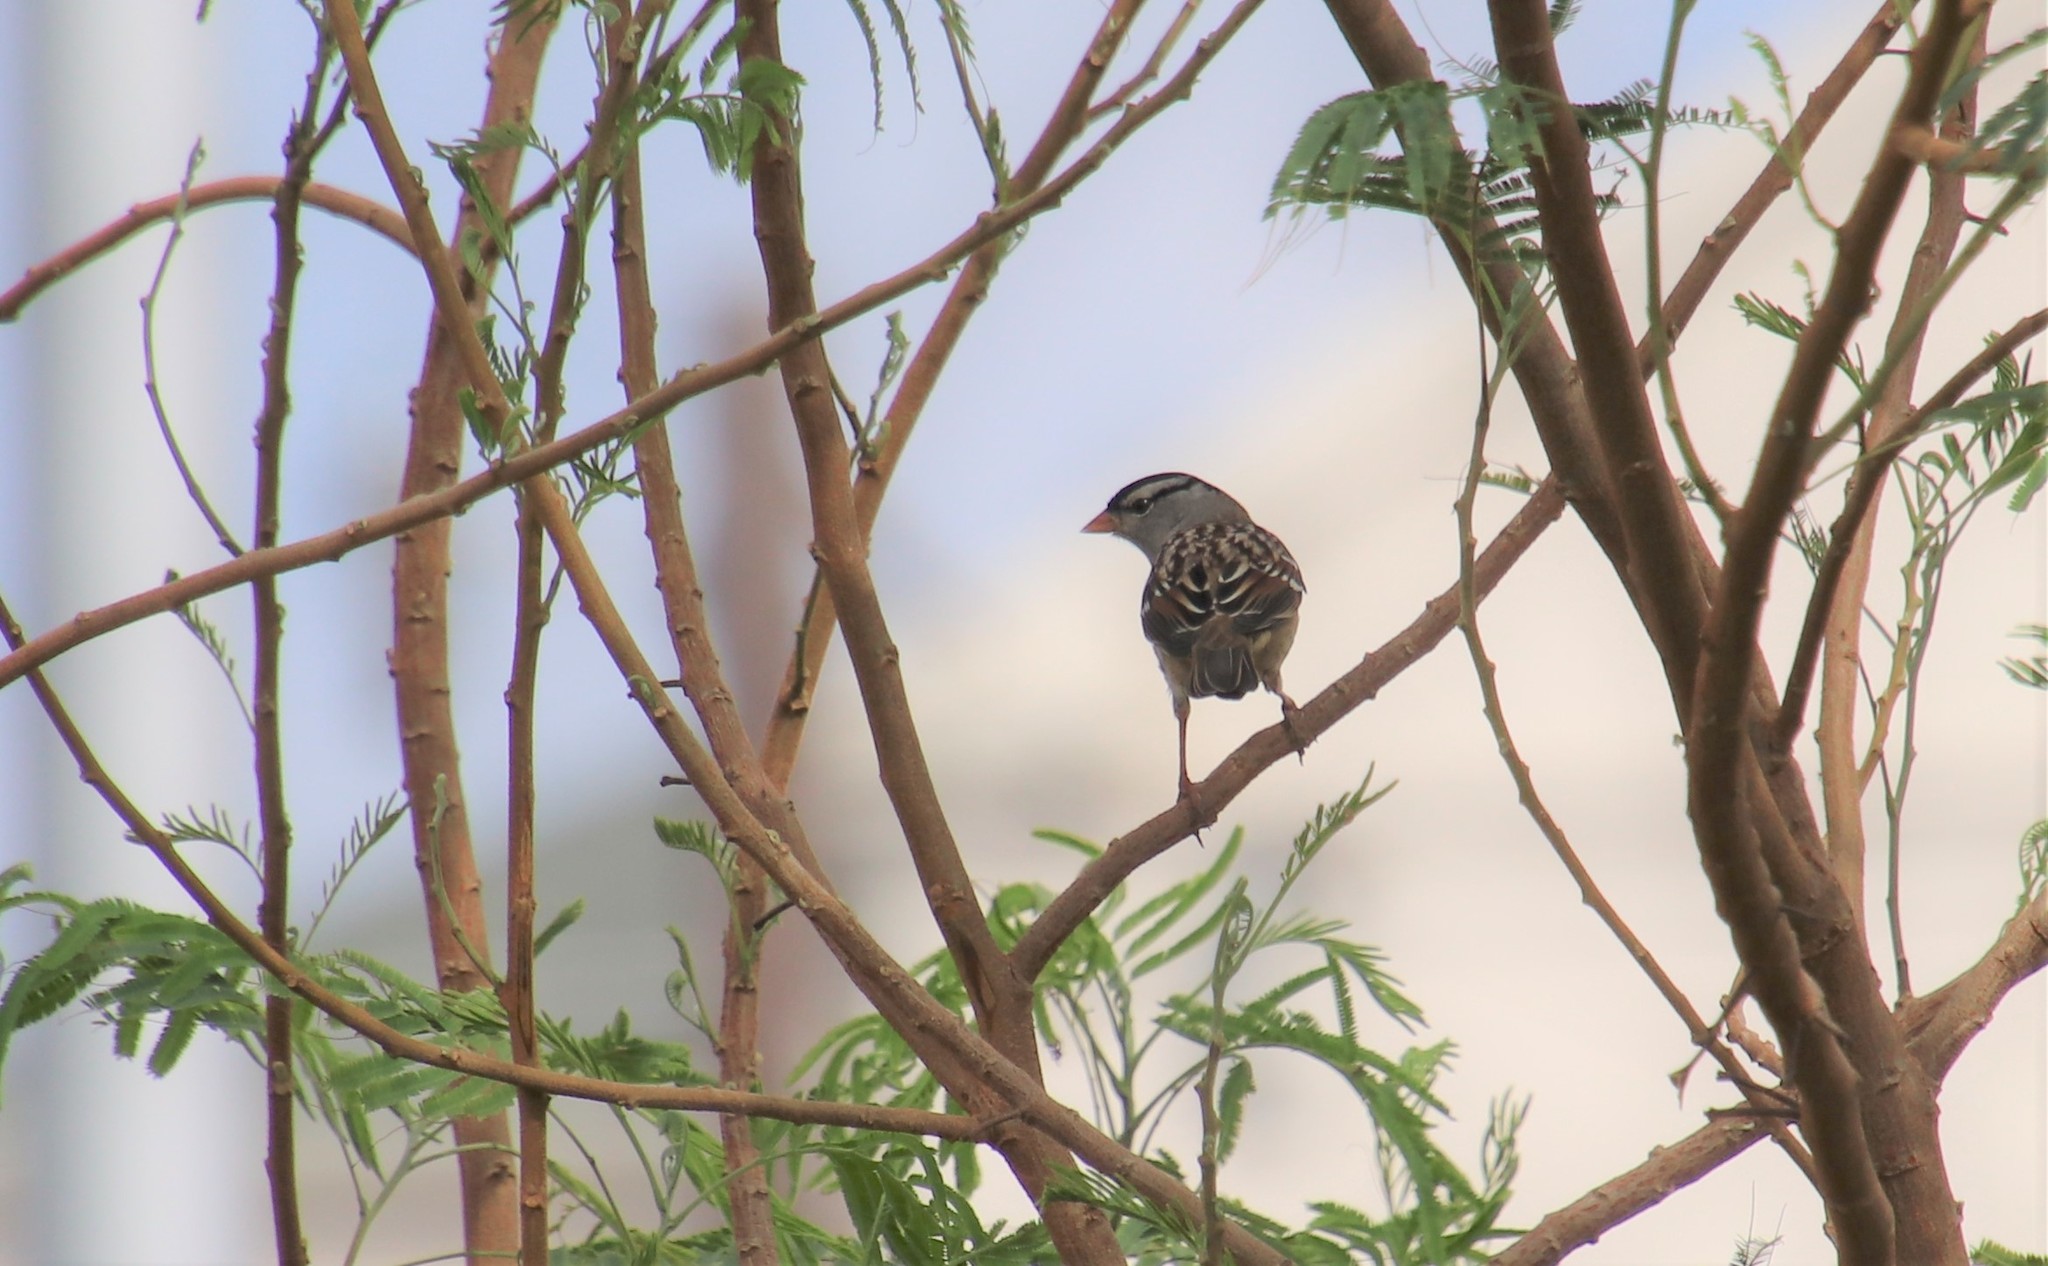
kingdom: Animalia
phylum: Chordata
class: Aves
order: Passeriformes
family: Passerellidae
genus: Zonotrichia
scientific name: Zonotrichia leucophrys
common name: White-crowned sparrow
